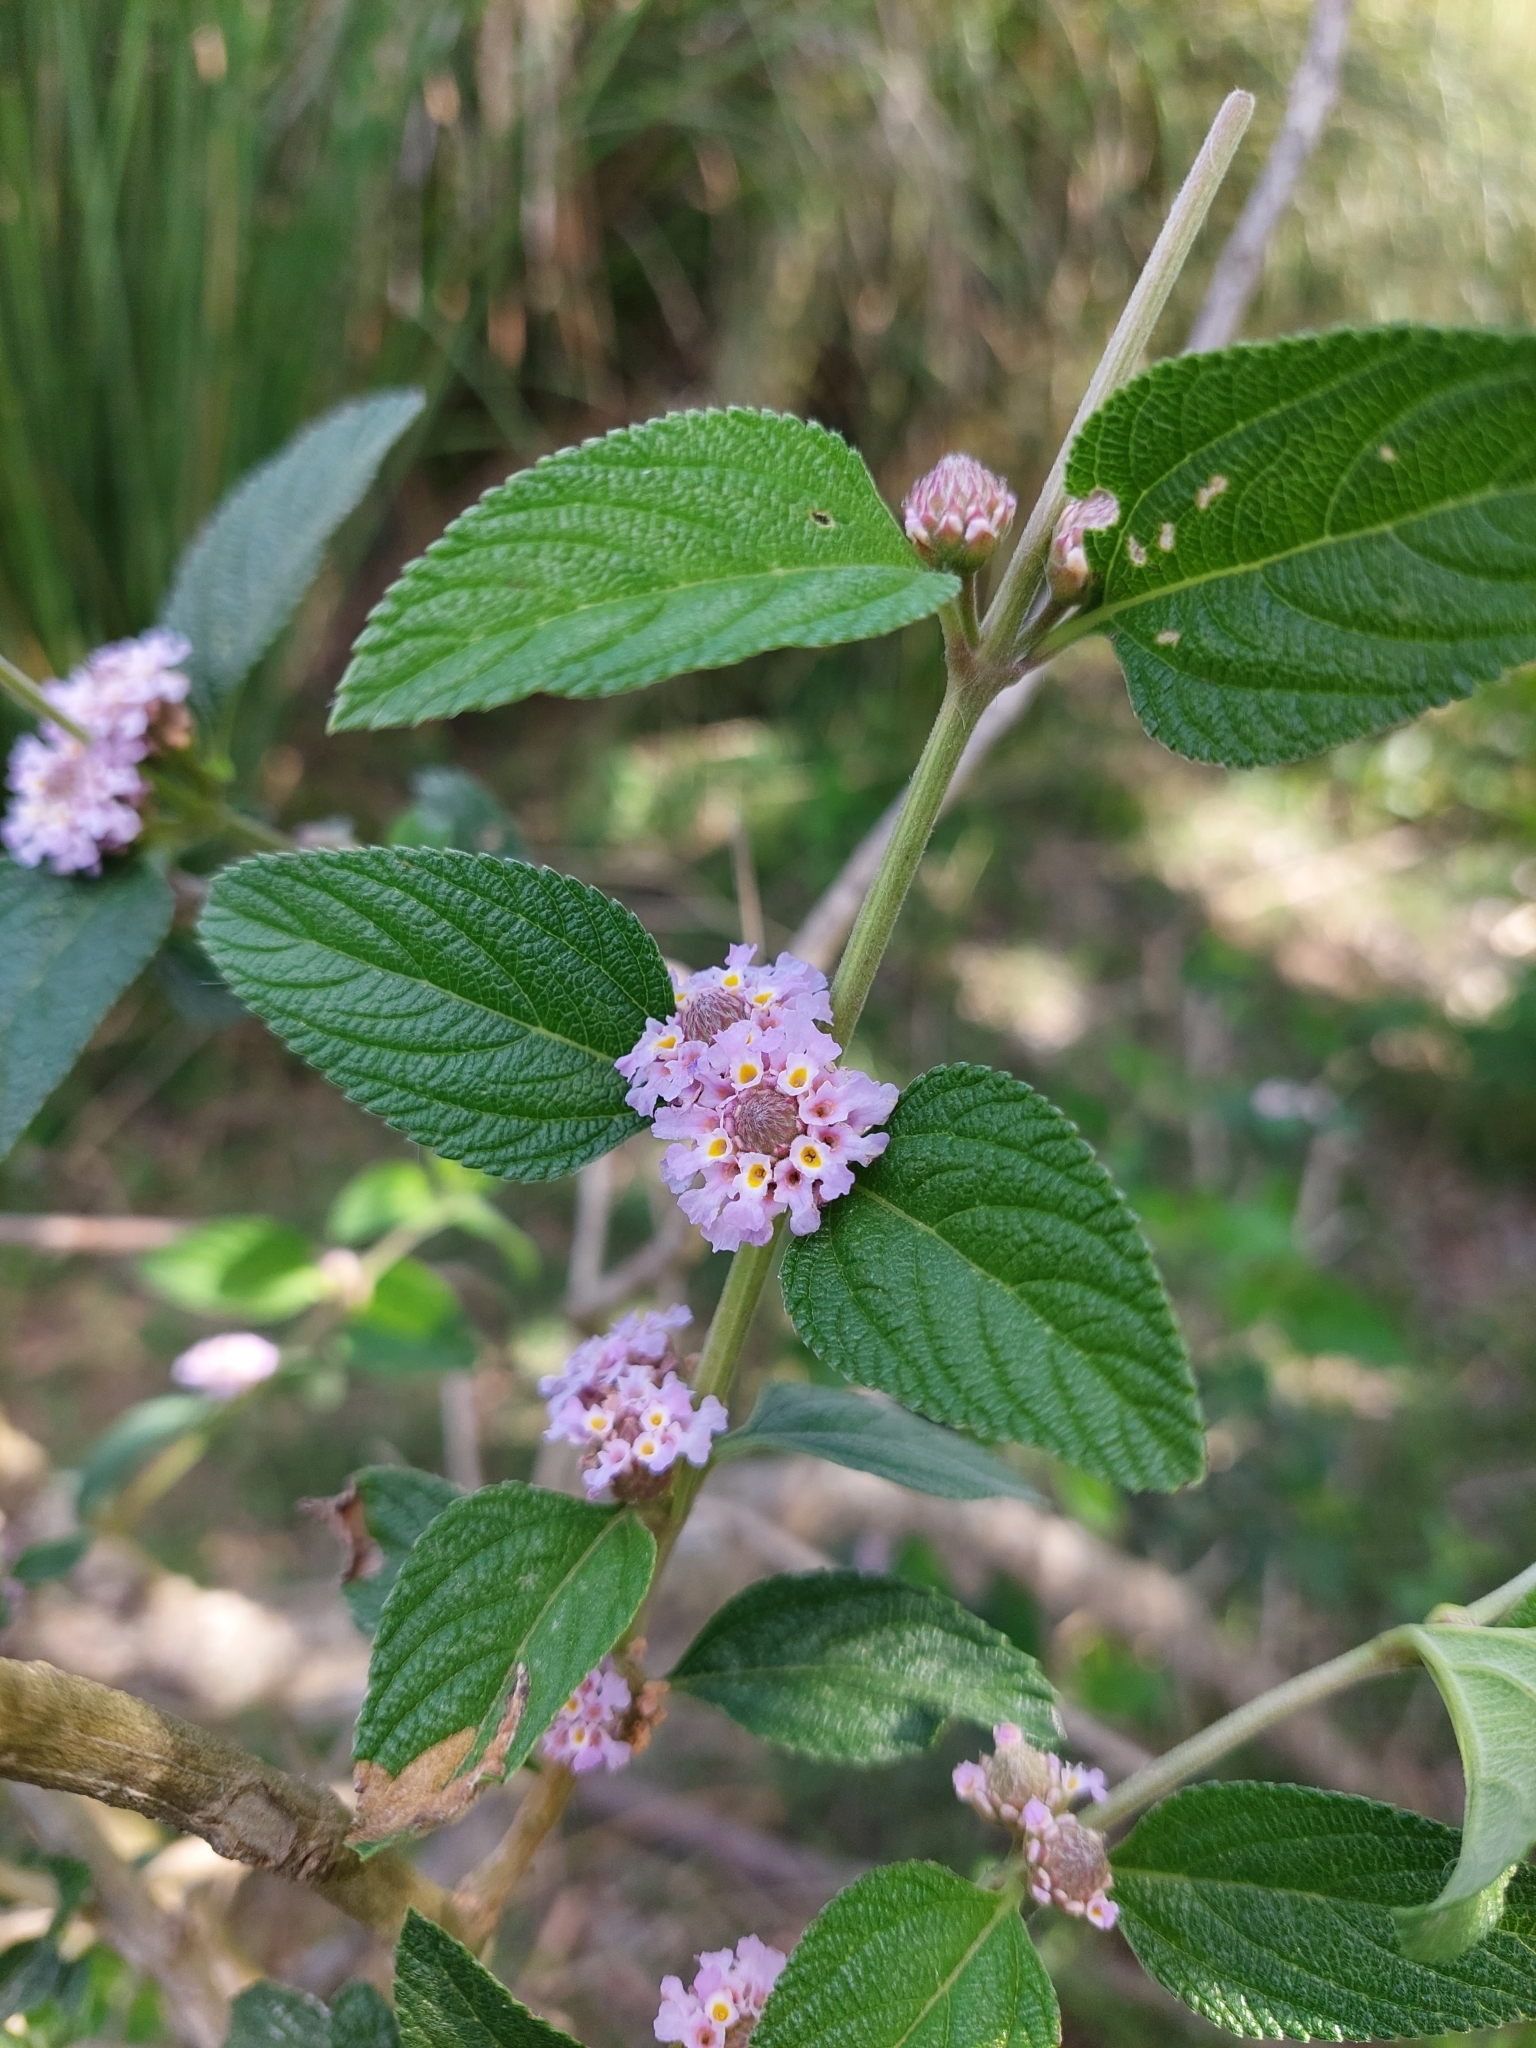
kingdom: Plantae
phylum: Tracheophyta
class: Magnoliopsida
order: Lamiales
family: Verbenaceae
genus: Lippia
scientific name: Lippia alba
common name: Bushy matgrass
